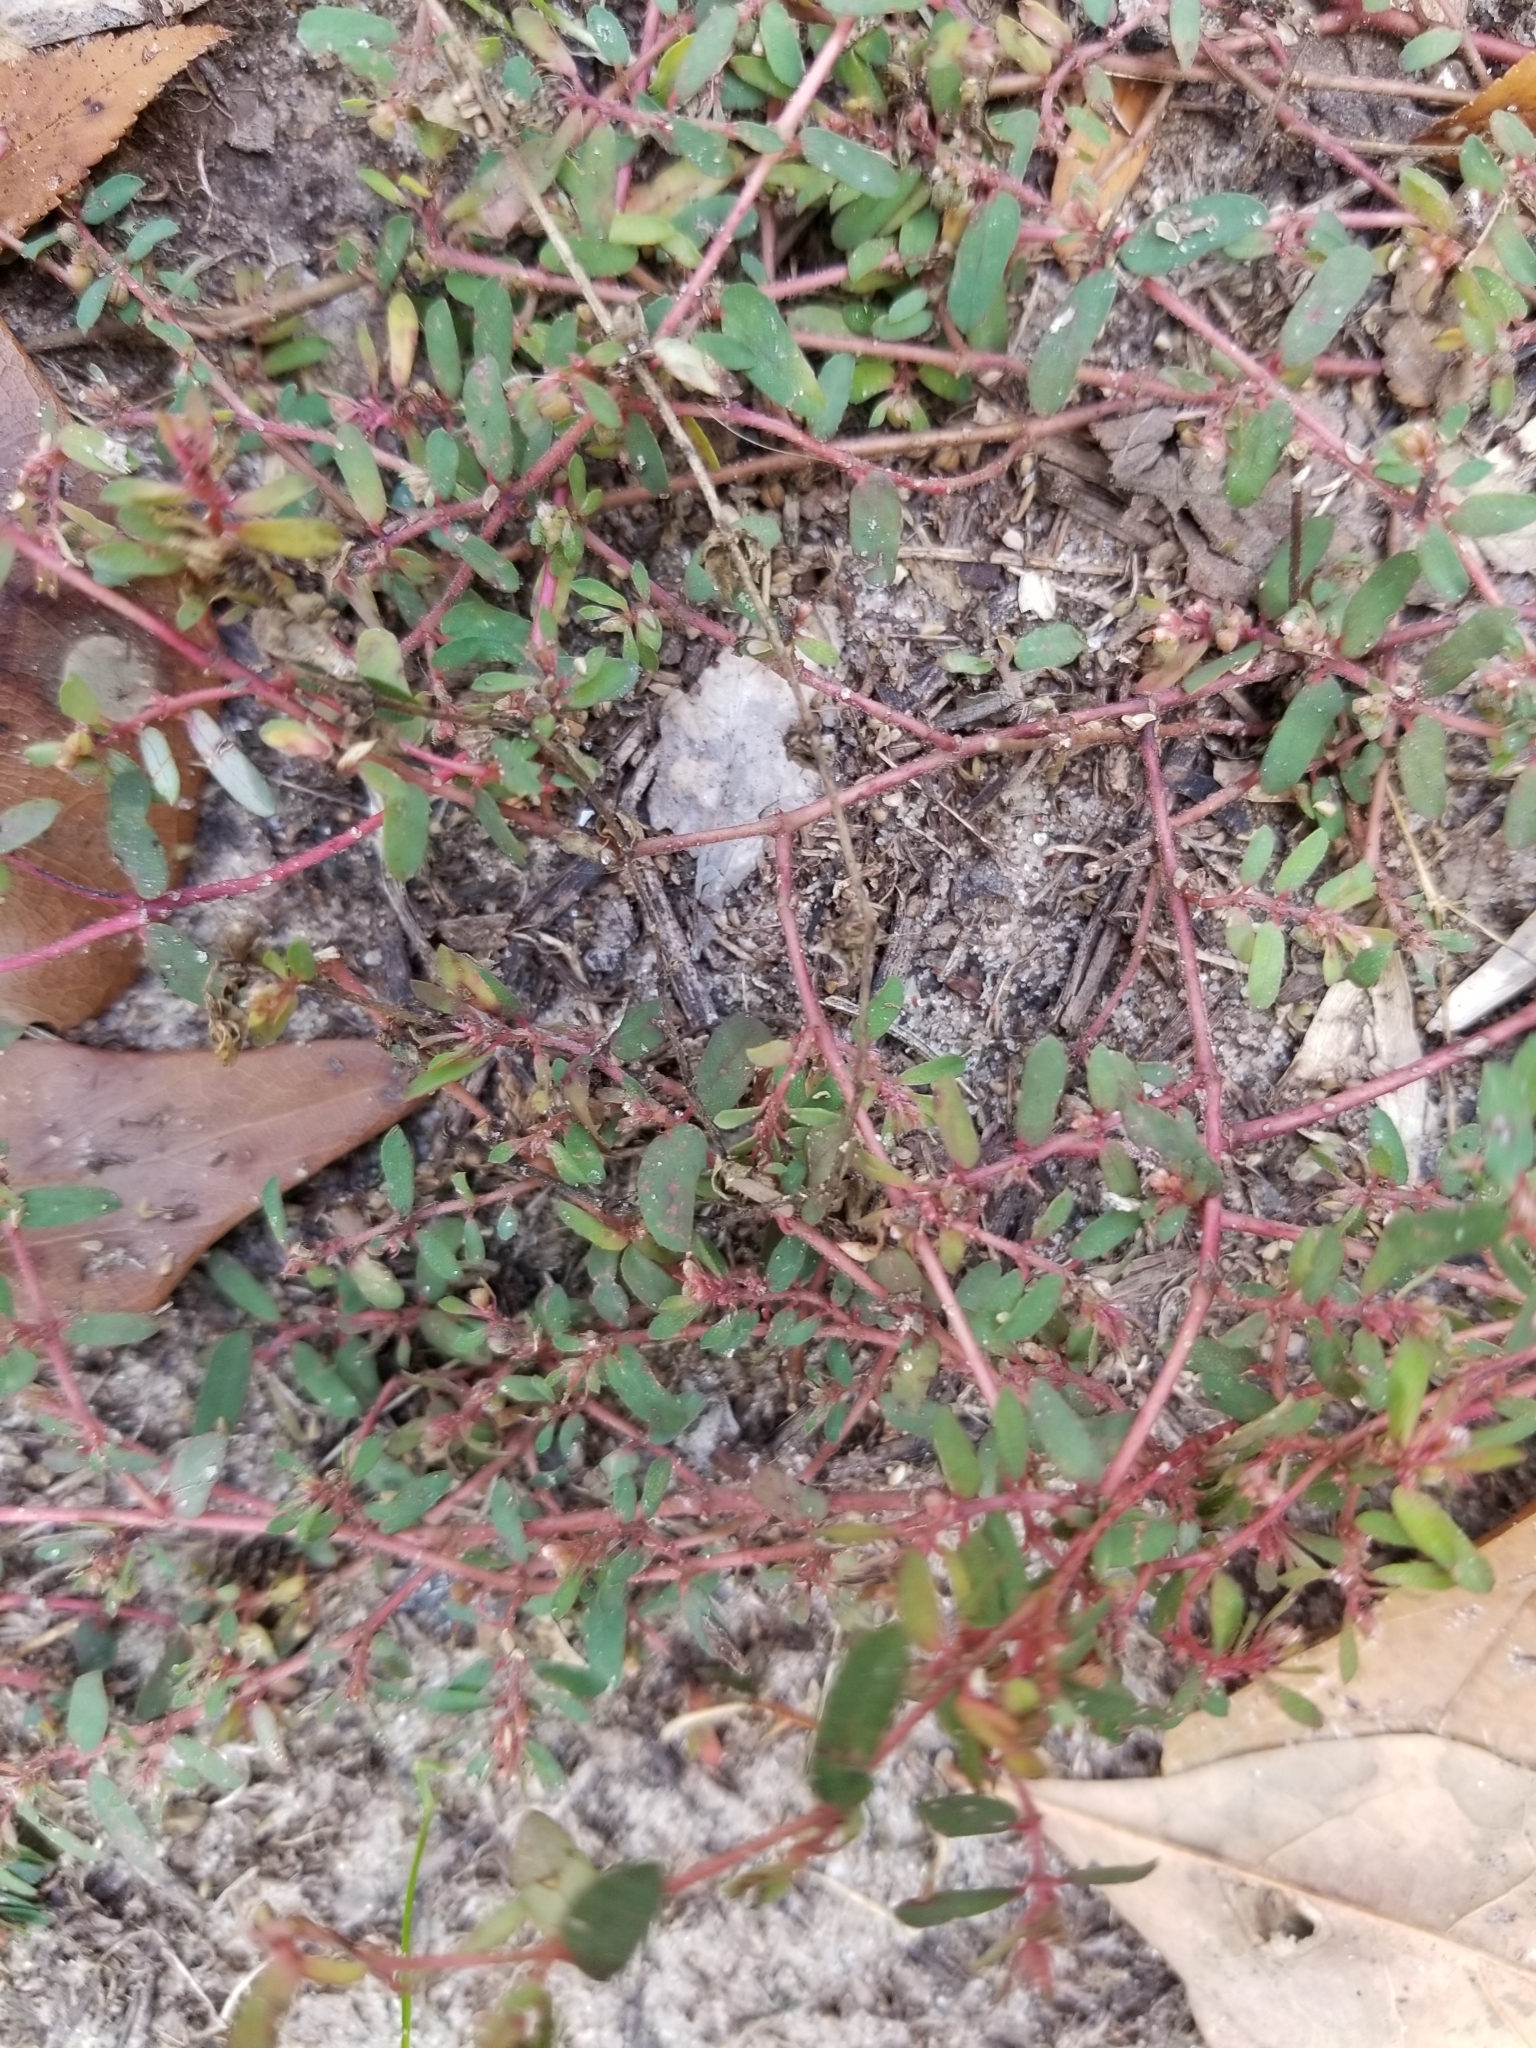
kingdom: Plantae
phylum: Tracheophyta
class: Magnoliopsida
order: Malpighiales
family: Euphorbiaceae
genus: Euphorbia
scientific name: Euphorbia maculata
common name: Spotted spurge
